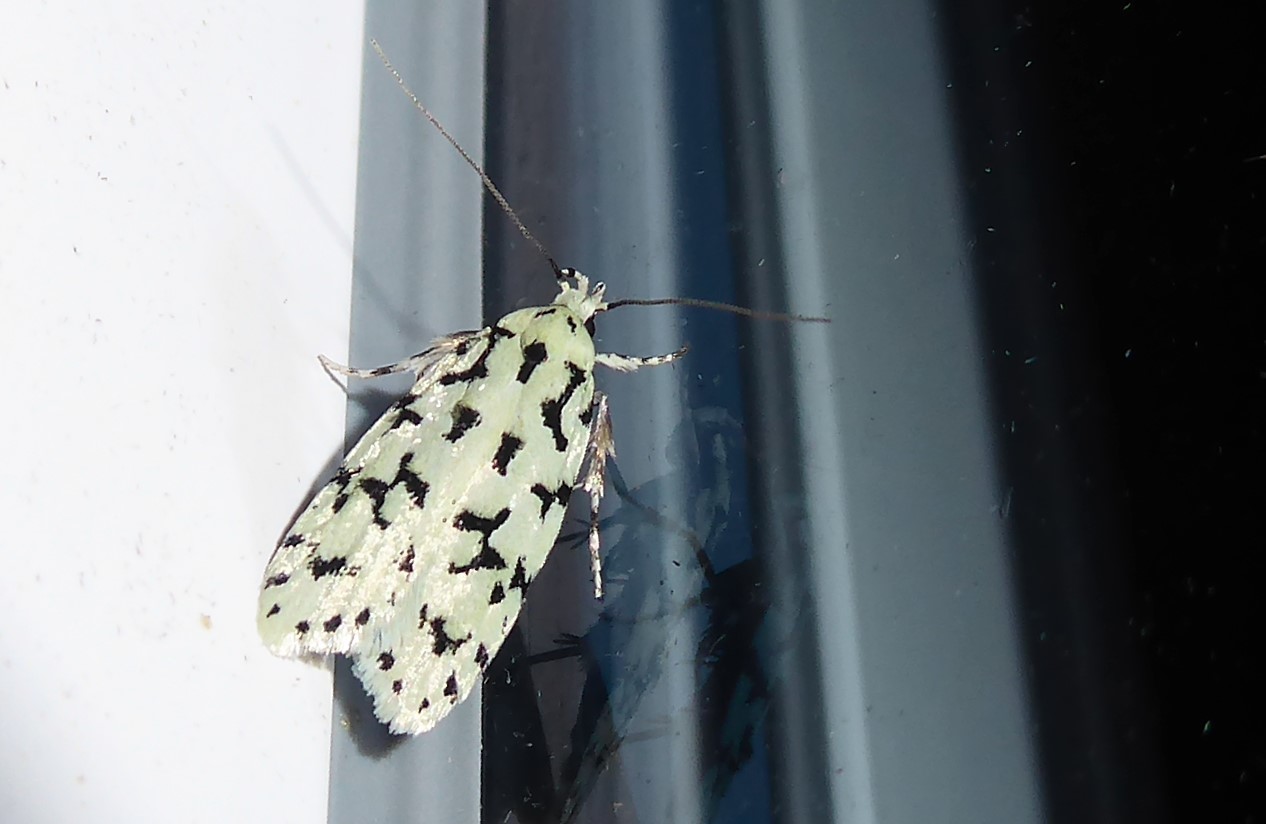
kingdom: Animalia
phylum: Arthropoda
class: Insecta
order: Lepidoptera
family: Oecophoridae
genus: Izatha
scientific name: Izatha huttoni
